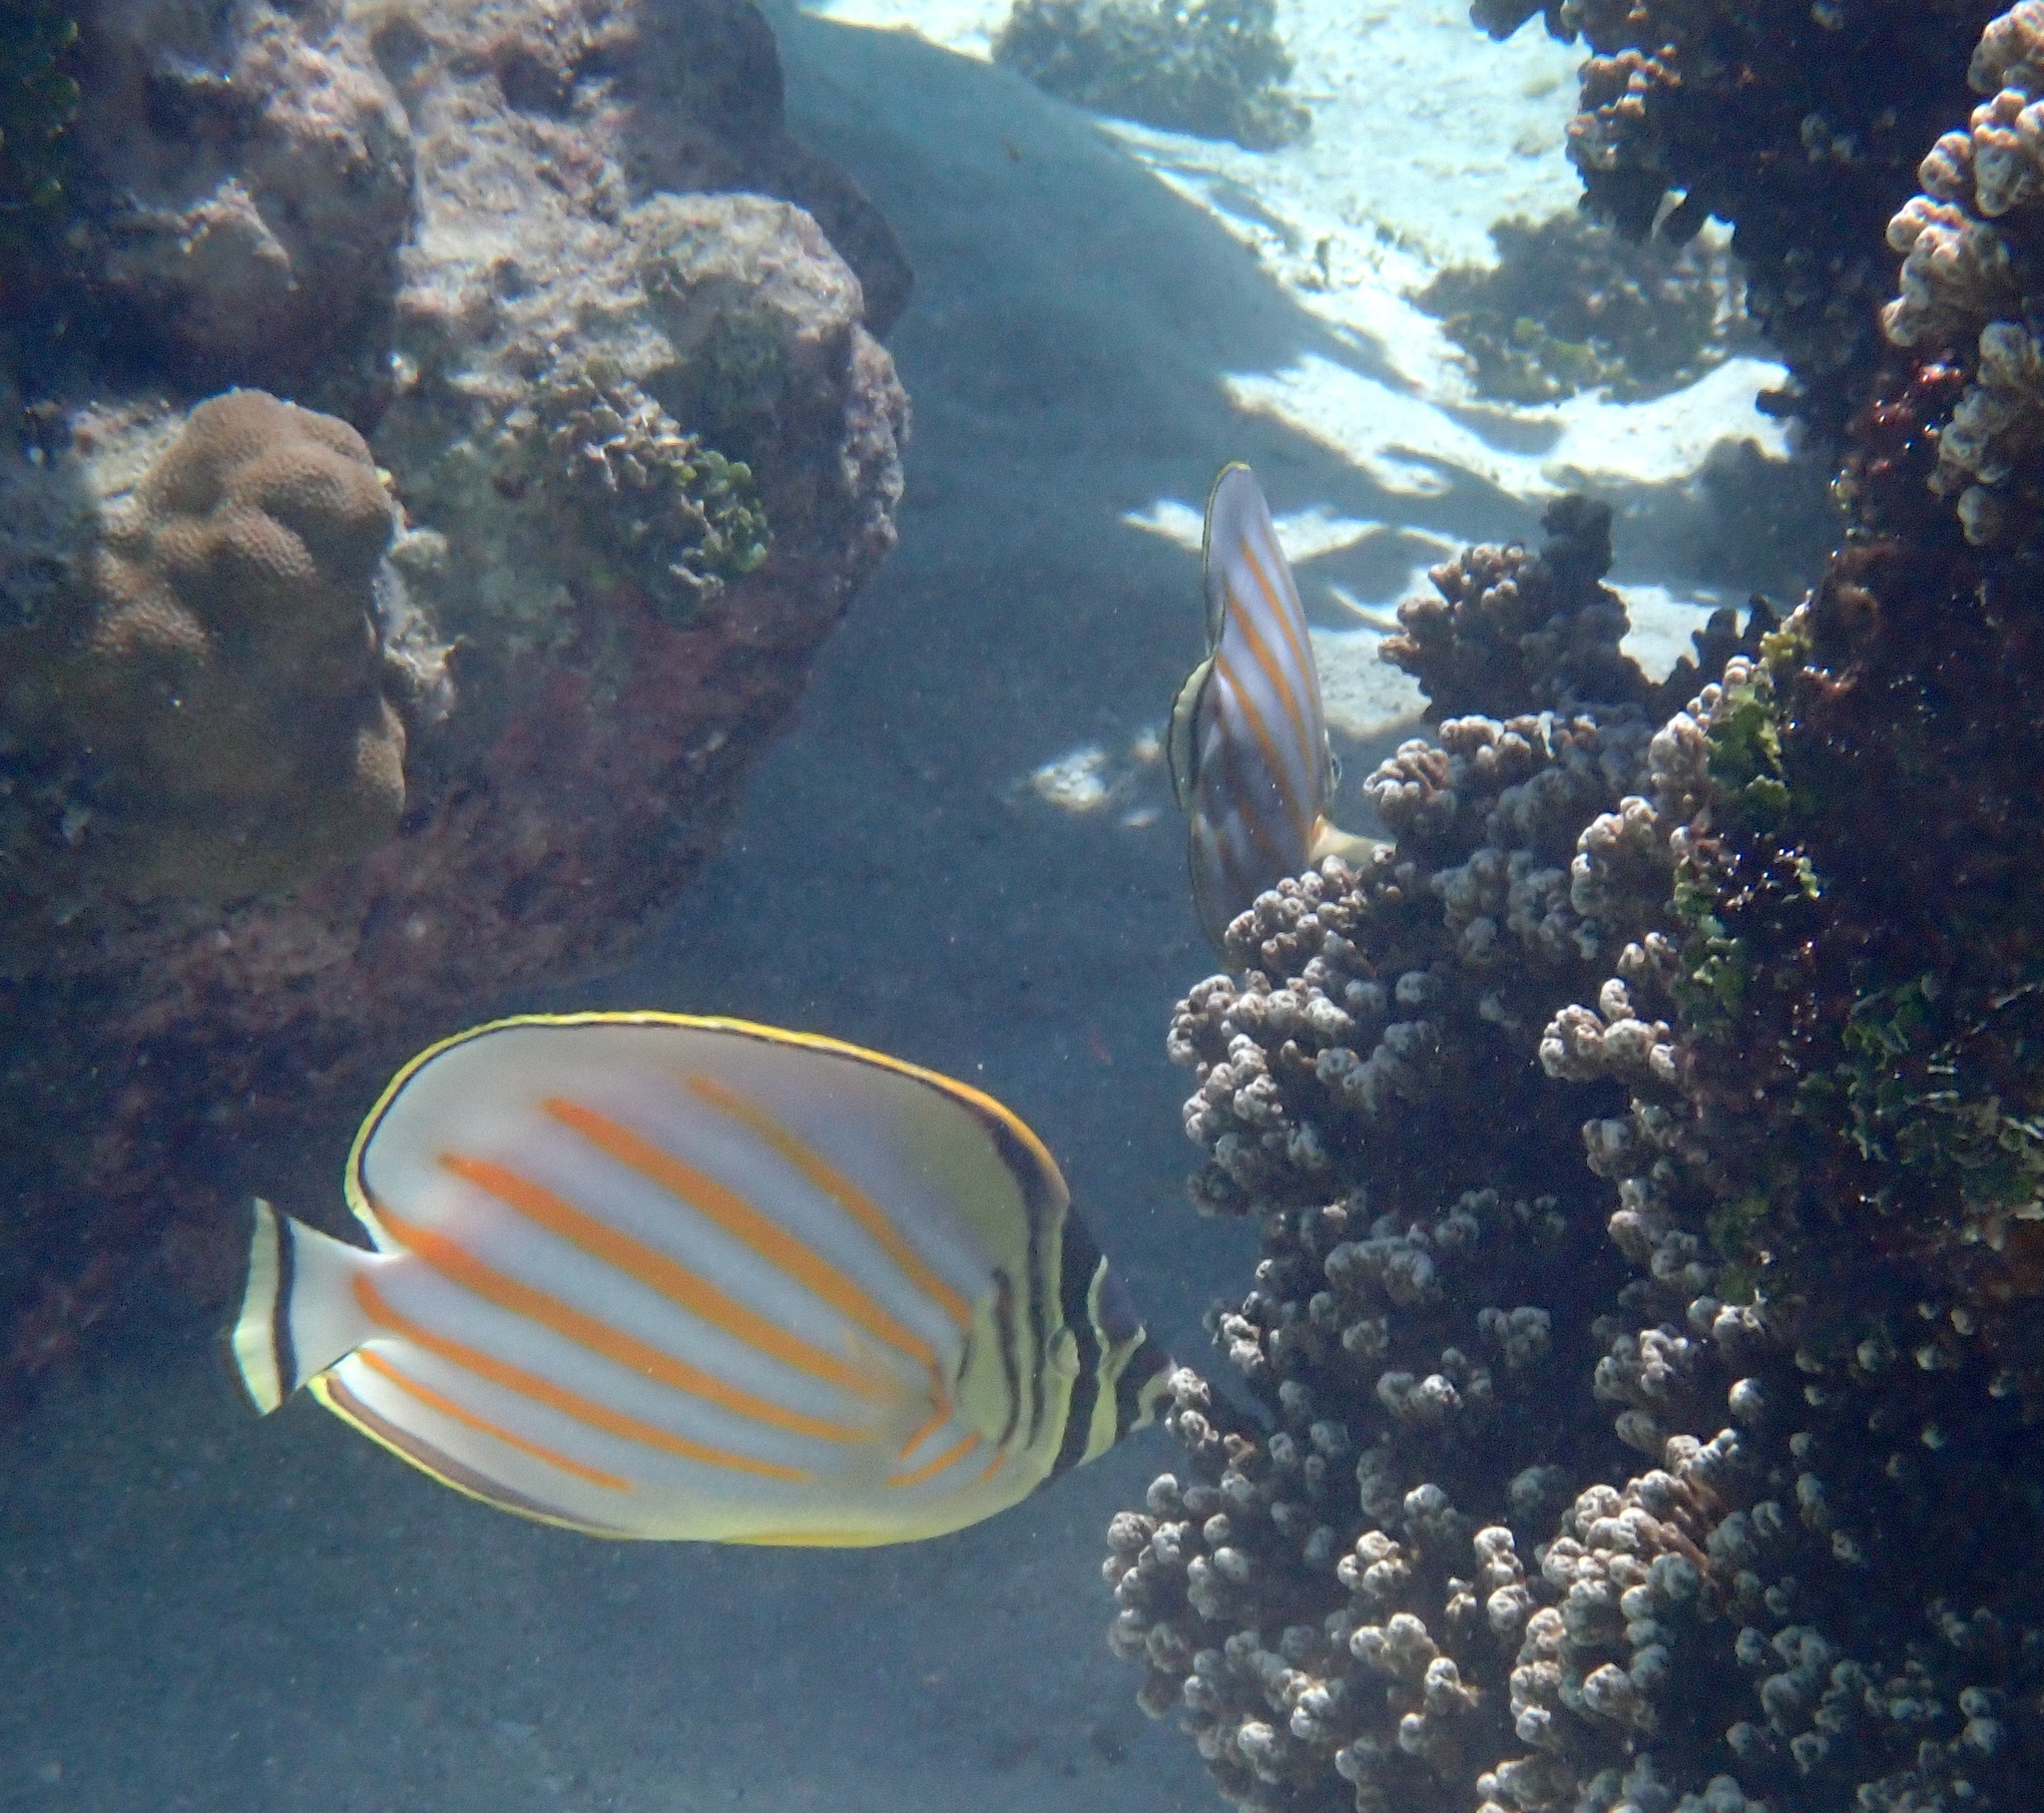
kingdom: Animalia
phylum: Chordata
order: Perciformes
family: Chaetodontidae
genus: Chaetodon
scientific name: Chaetodon ornatissimus
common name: Ornate butterflyfish
